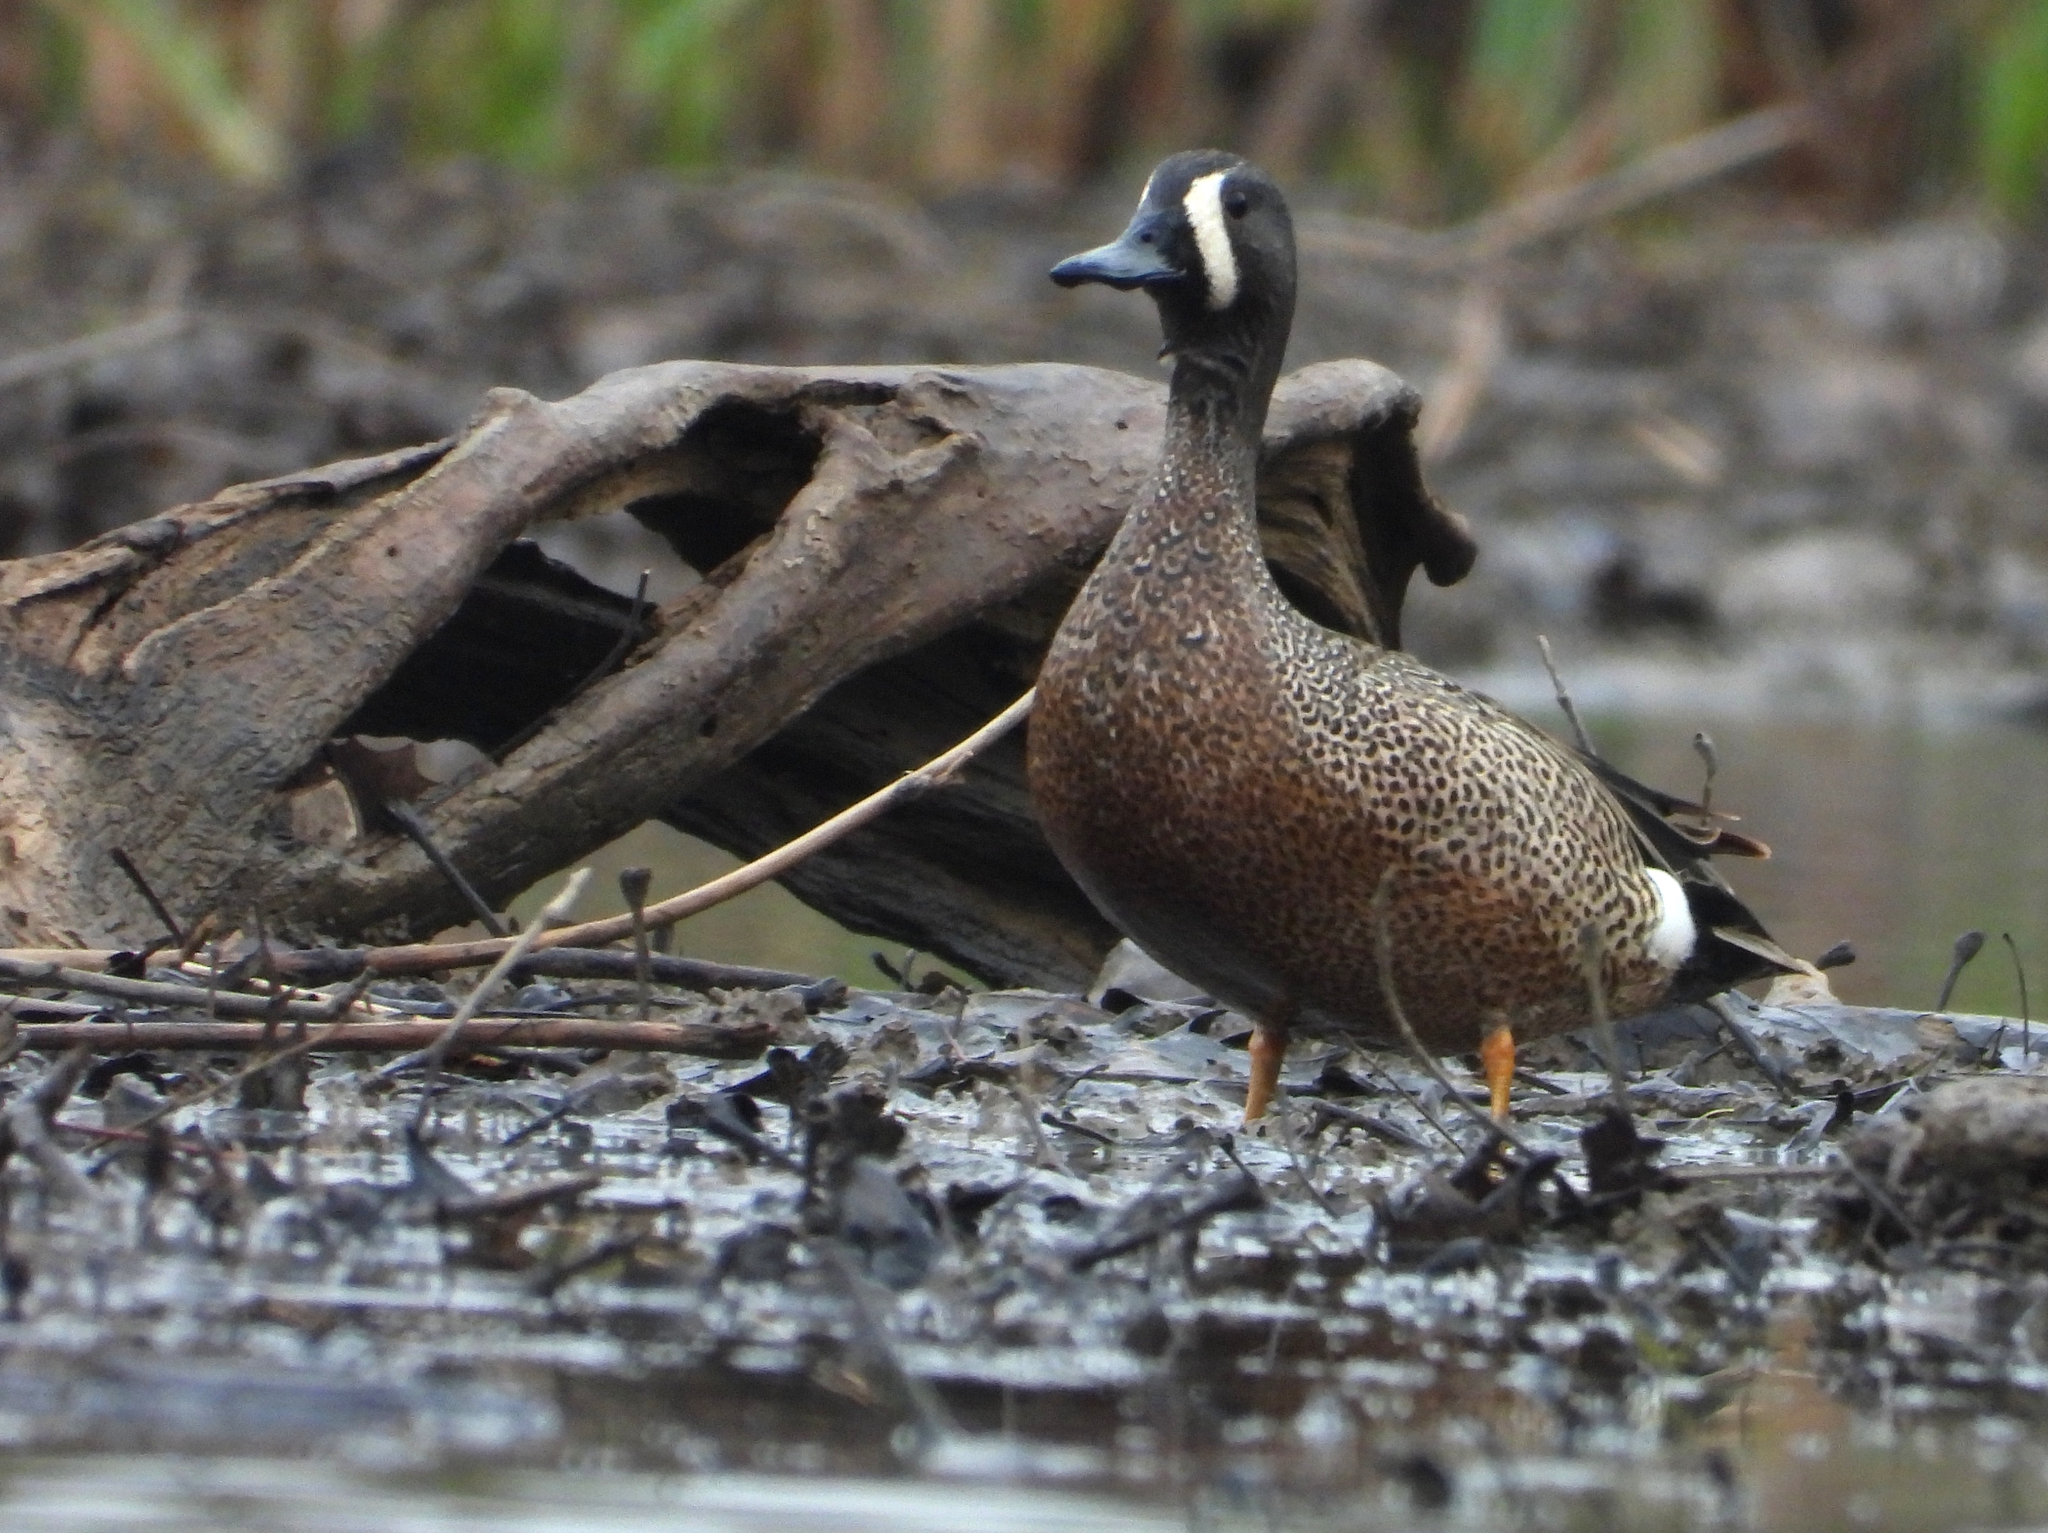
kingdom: Animalia
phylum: Chordata
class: Aves
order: Anseriformes
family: Anatidae
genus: Spatula
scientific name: Spatula discors
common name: Blue-winged teal
